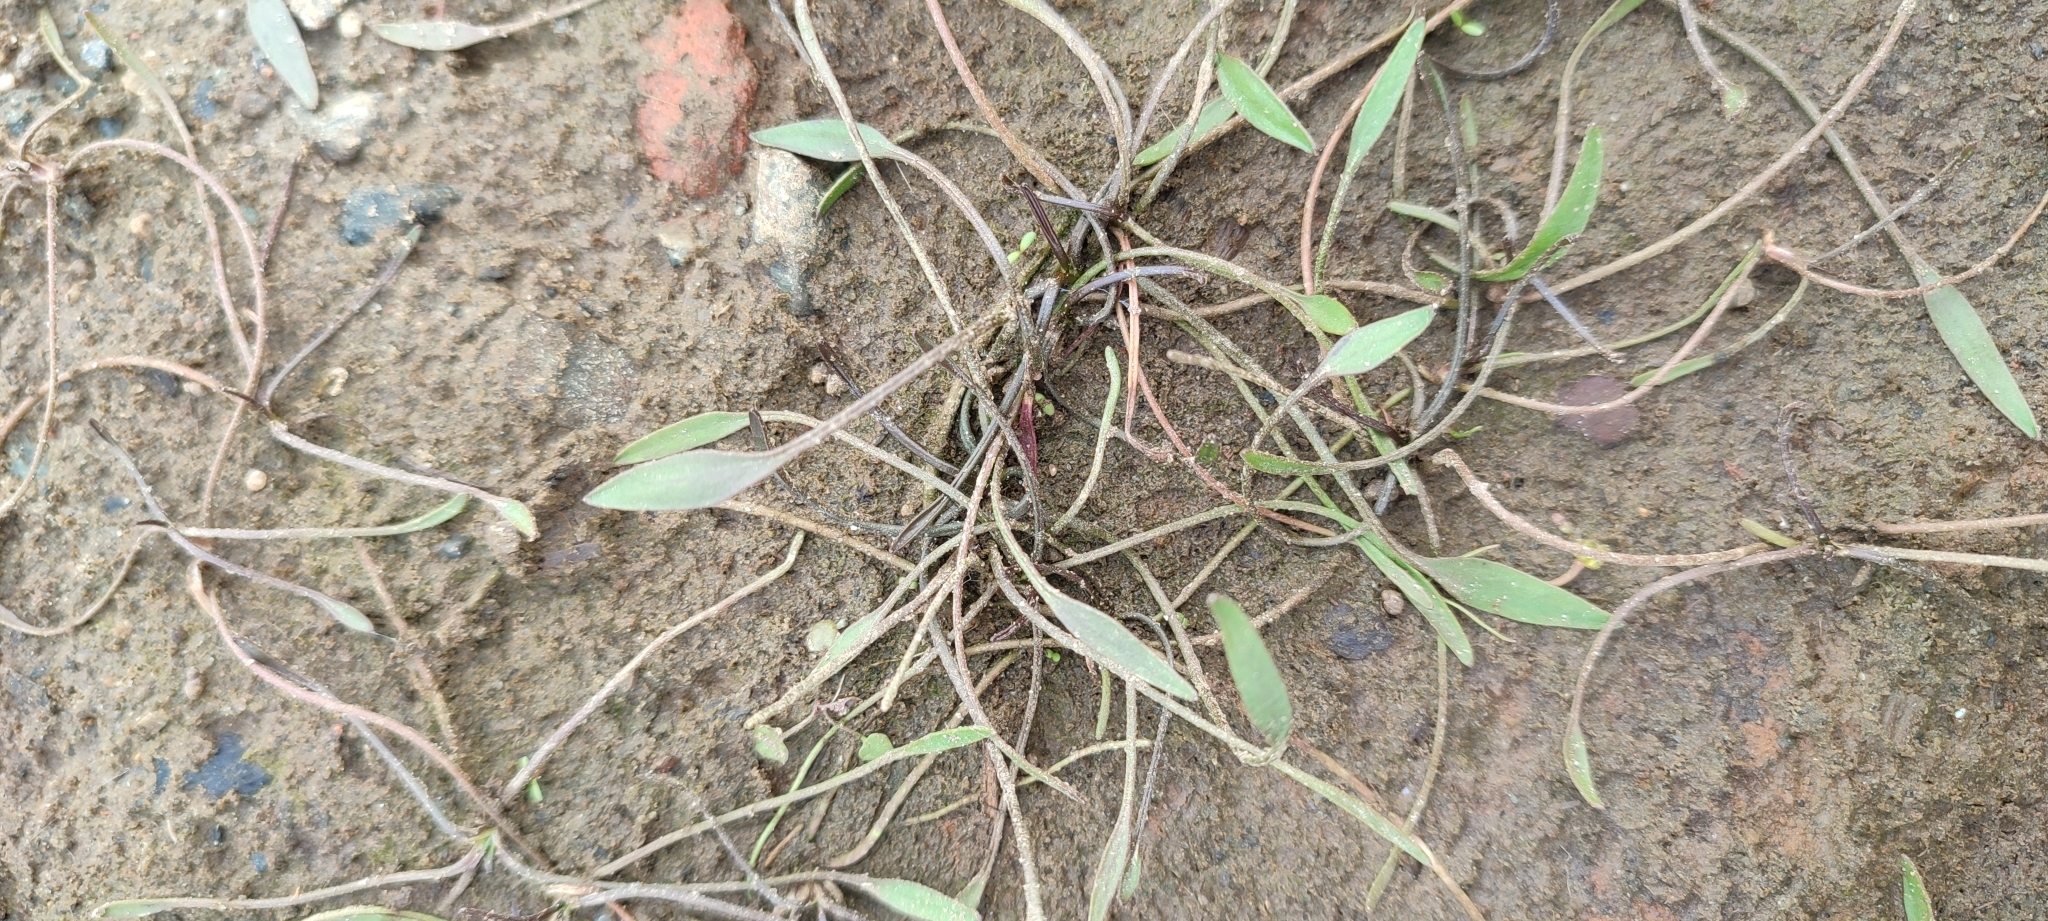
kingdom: Plantae
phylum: Tracheophyta
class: Magnoliopsida
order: Lamiales
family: Scrophulariaceae
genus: Limosella
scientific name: Limosella aquatica
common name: Mudwort
